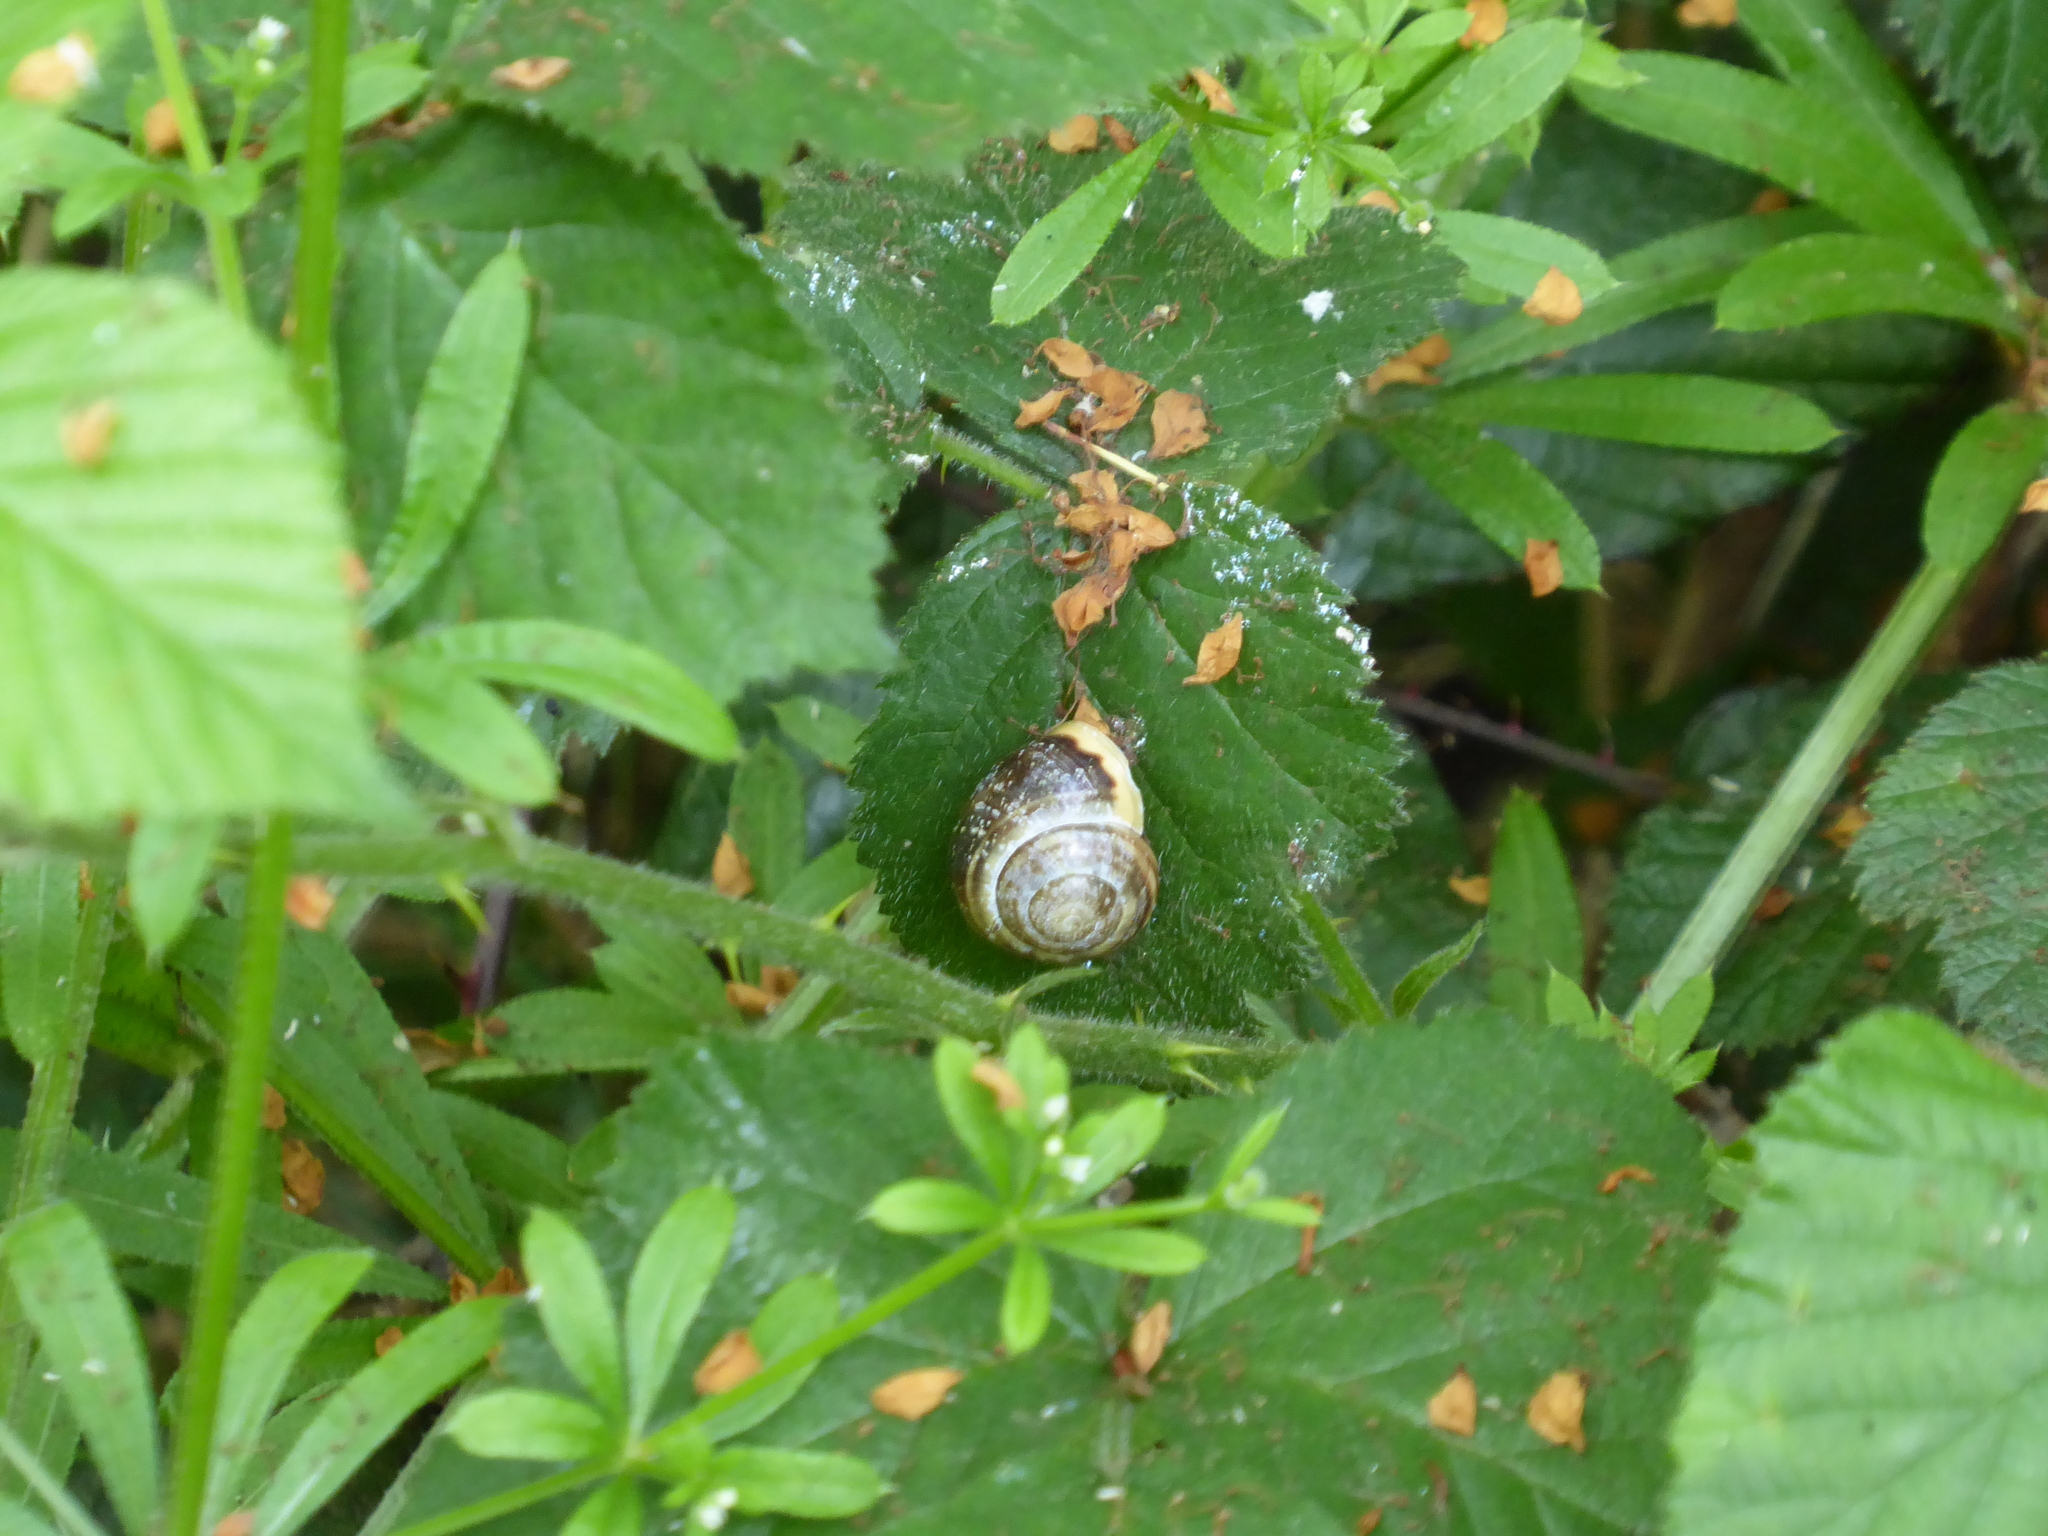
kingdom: Animalia
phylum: Mollusca
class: Gastropoda
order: Stylommatophora
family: Helicidae
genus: Cepaea
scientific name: Cepaea hortensis
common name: White-lip gardensnail
